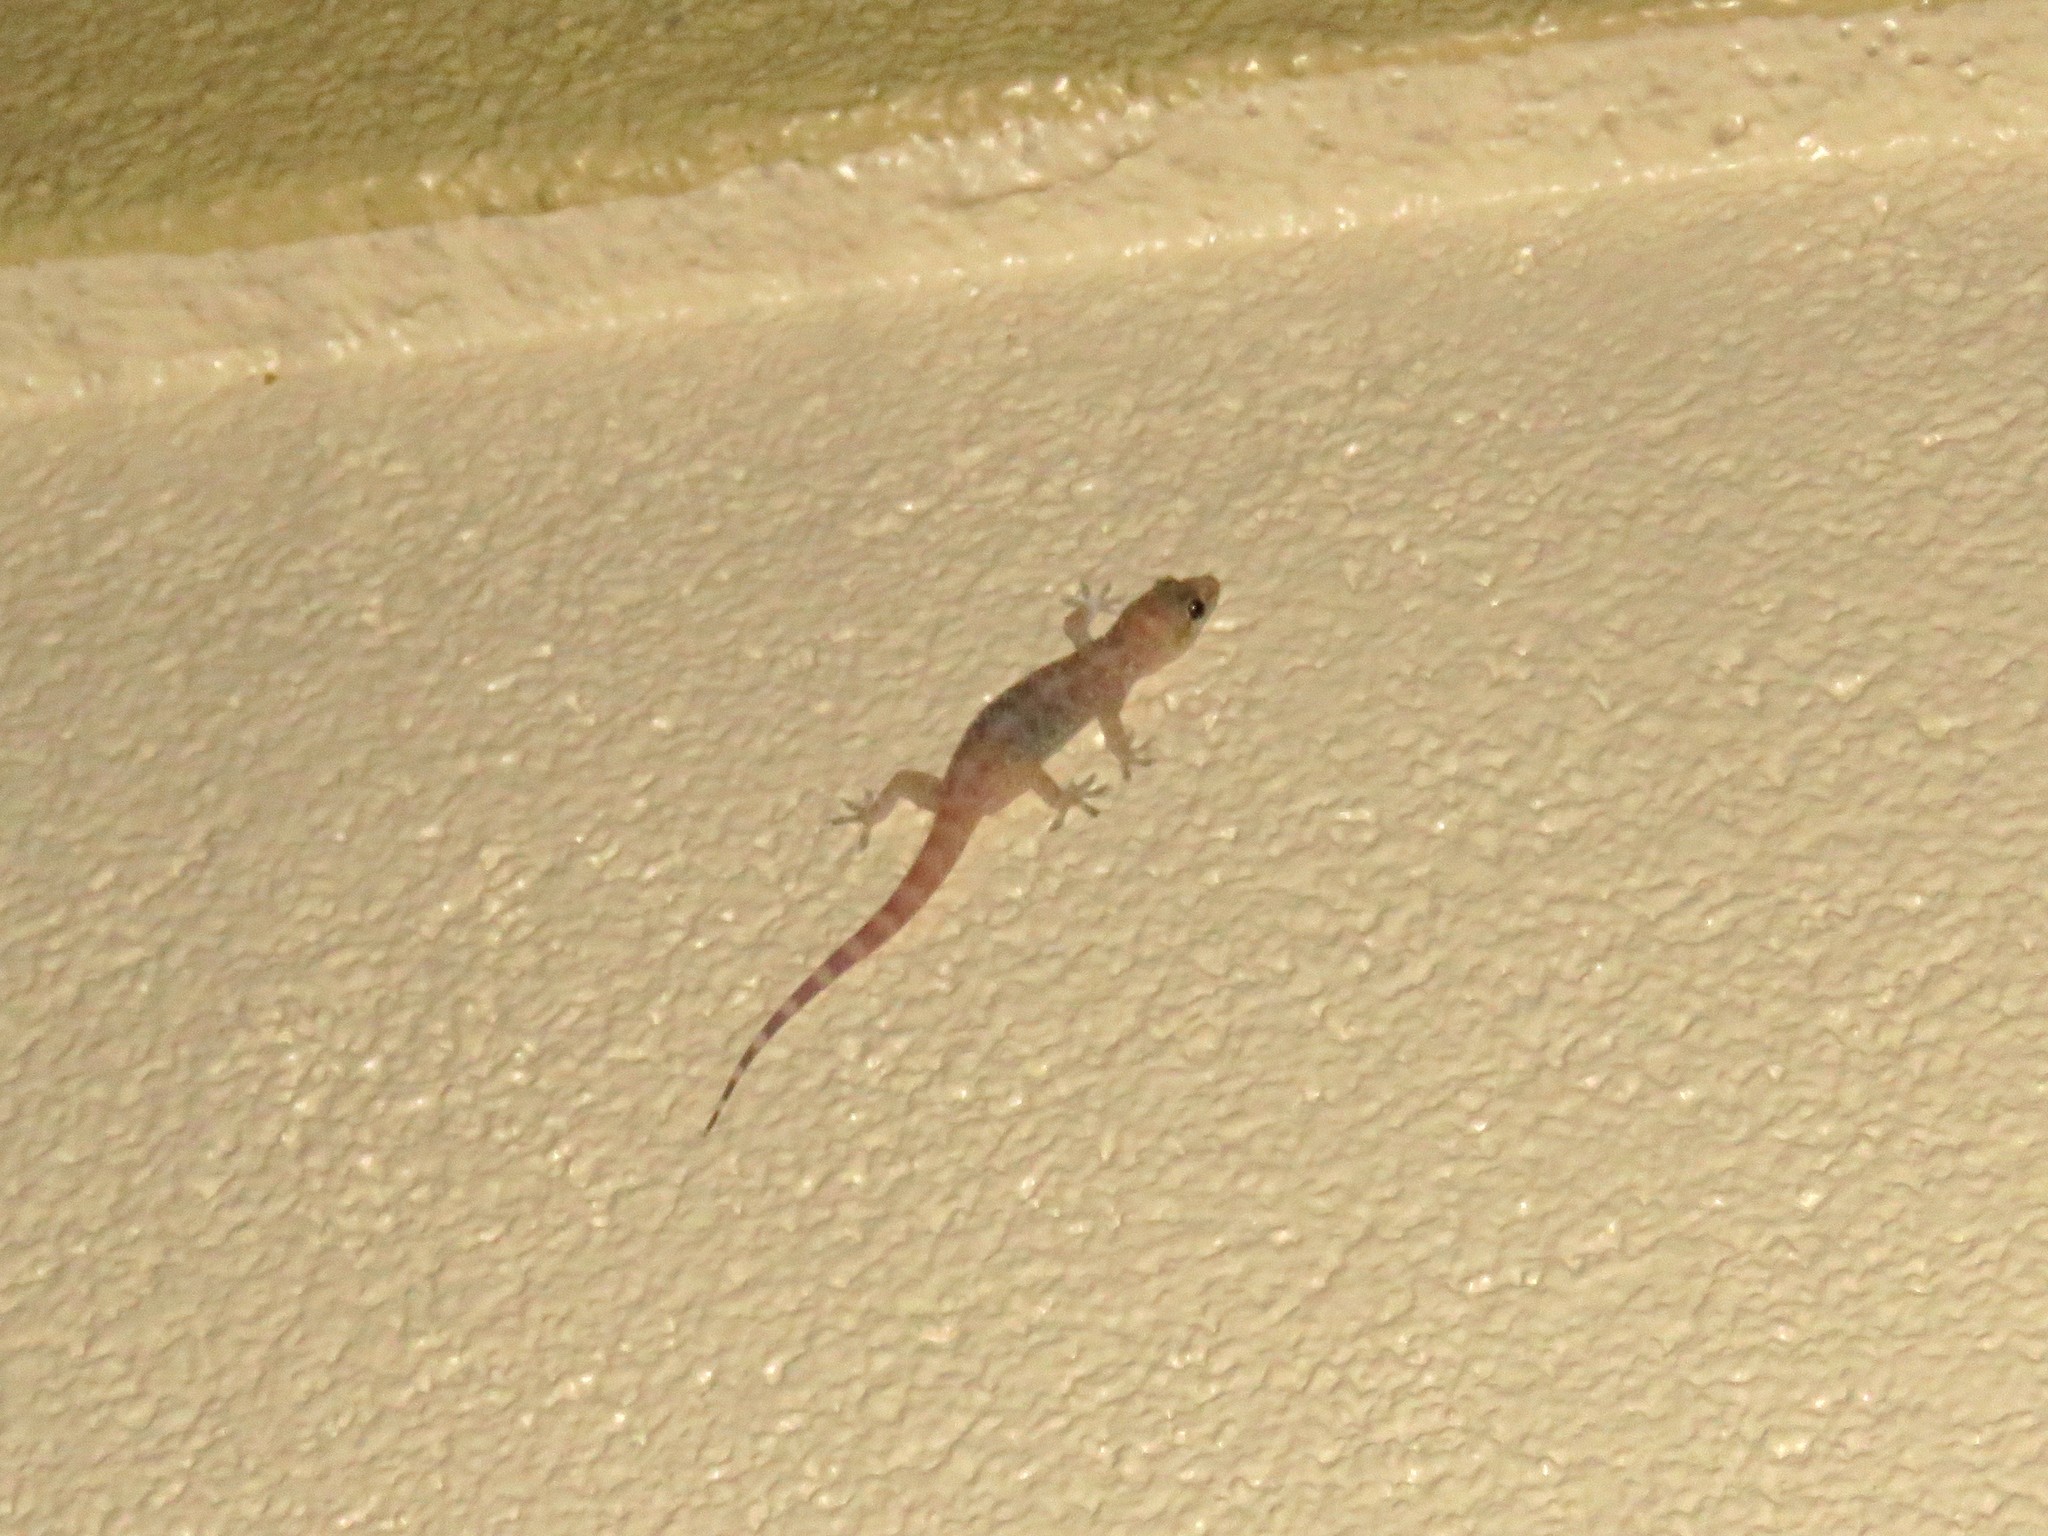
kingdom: Animalia
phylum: Chordata
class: Squamata
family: Gekkonidae
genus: Hemidactylus
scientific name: Hemidactylus turcicus
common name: Turkish gecko
